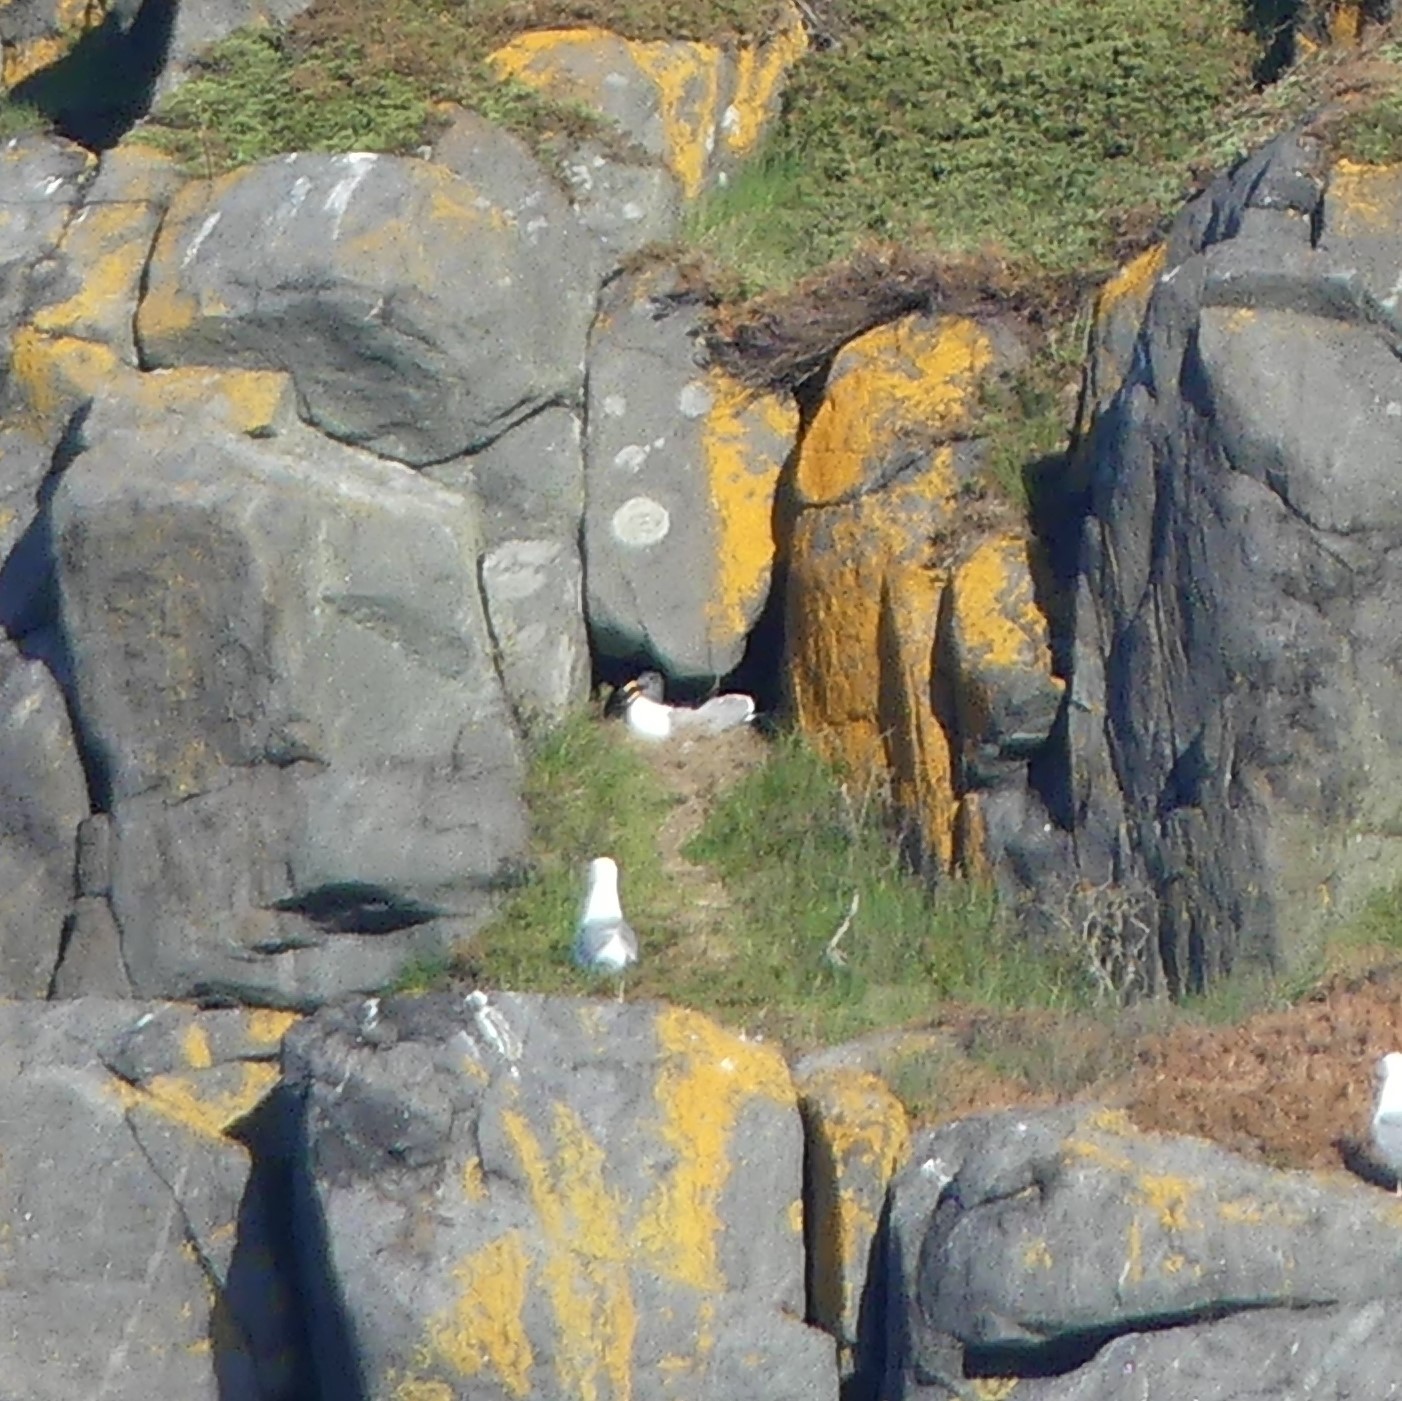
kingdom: Animalia
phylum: Chordata
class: Aves
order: Charadriiformes
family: Laridae
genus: Larus
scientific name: Larus argentatus
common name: Herring gull
